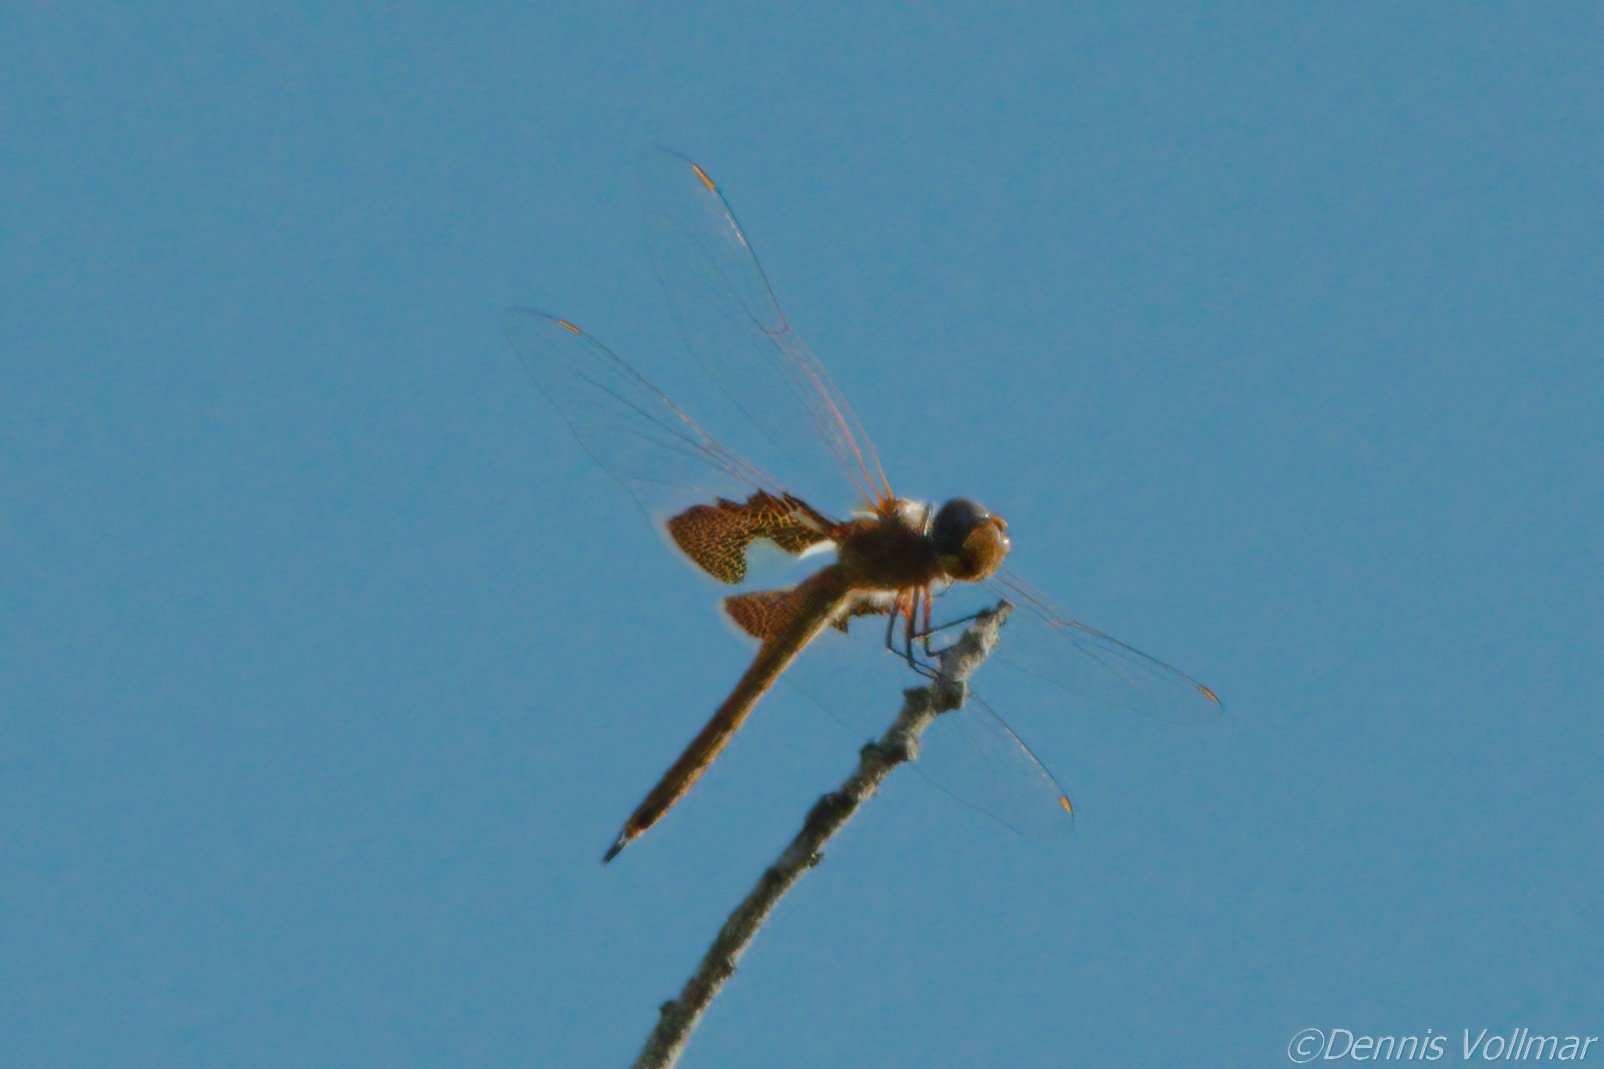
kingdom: Animalia
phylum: Arthropoda
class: Insecta
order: Odonata
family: Libellulidae
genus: Tramea
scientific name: Tramea onusta
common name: Red saddlebags
